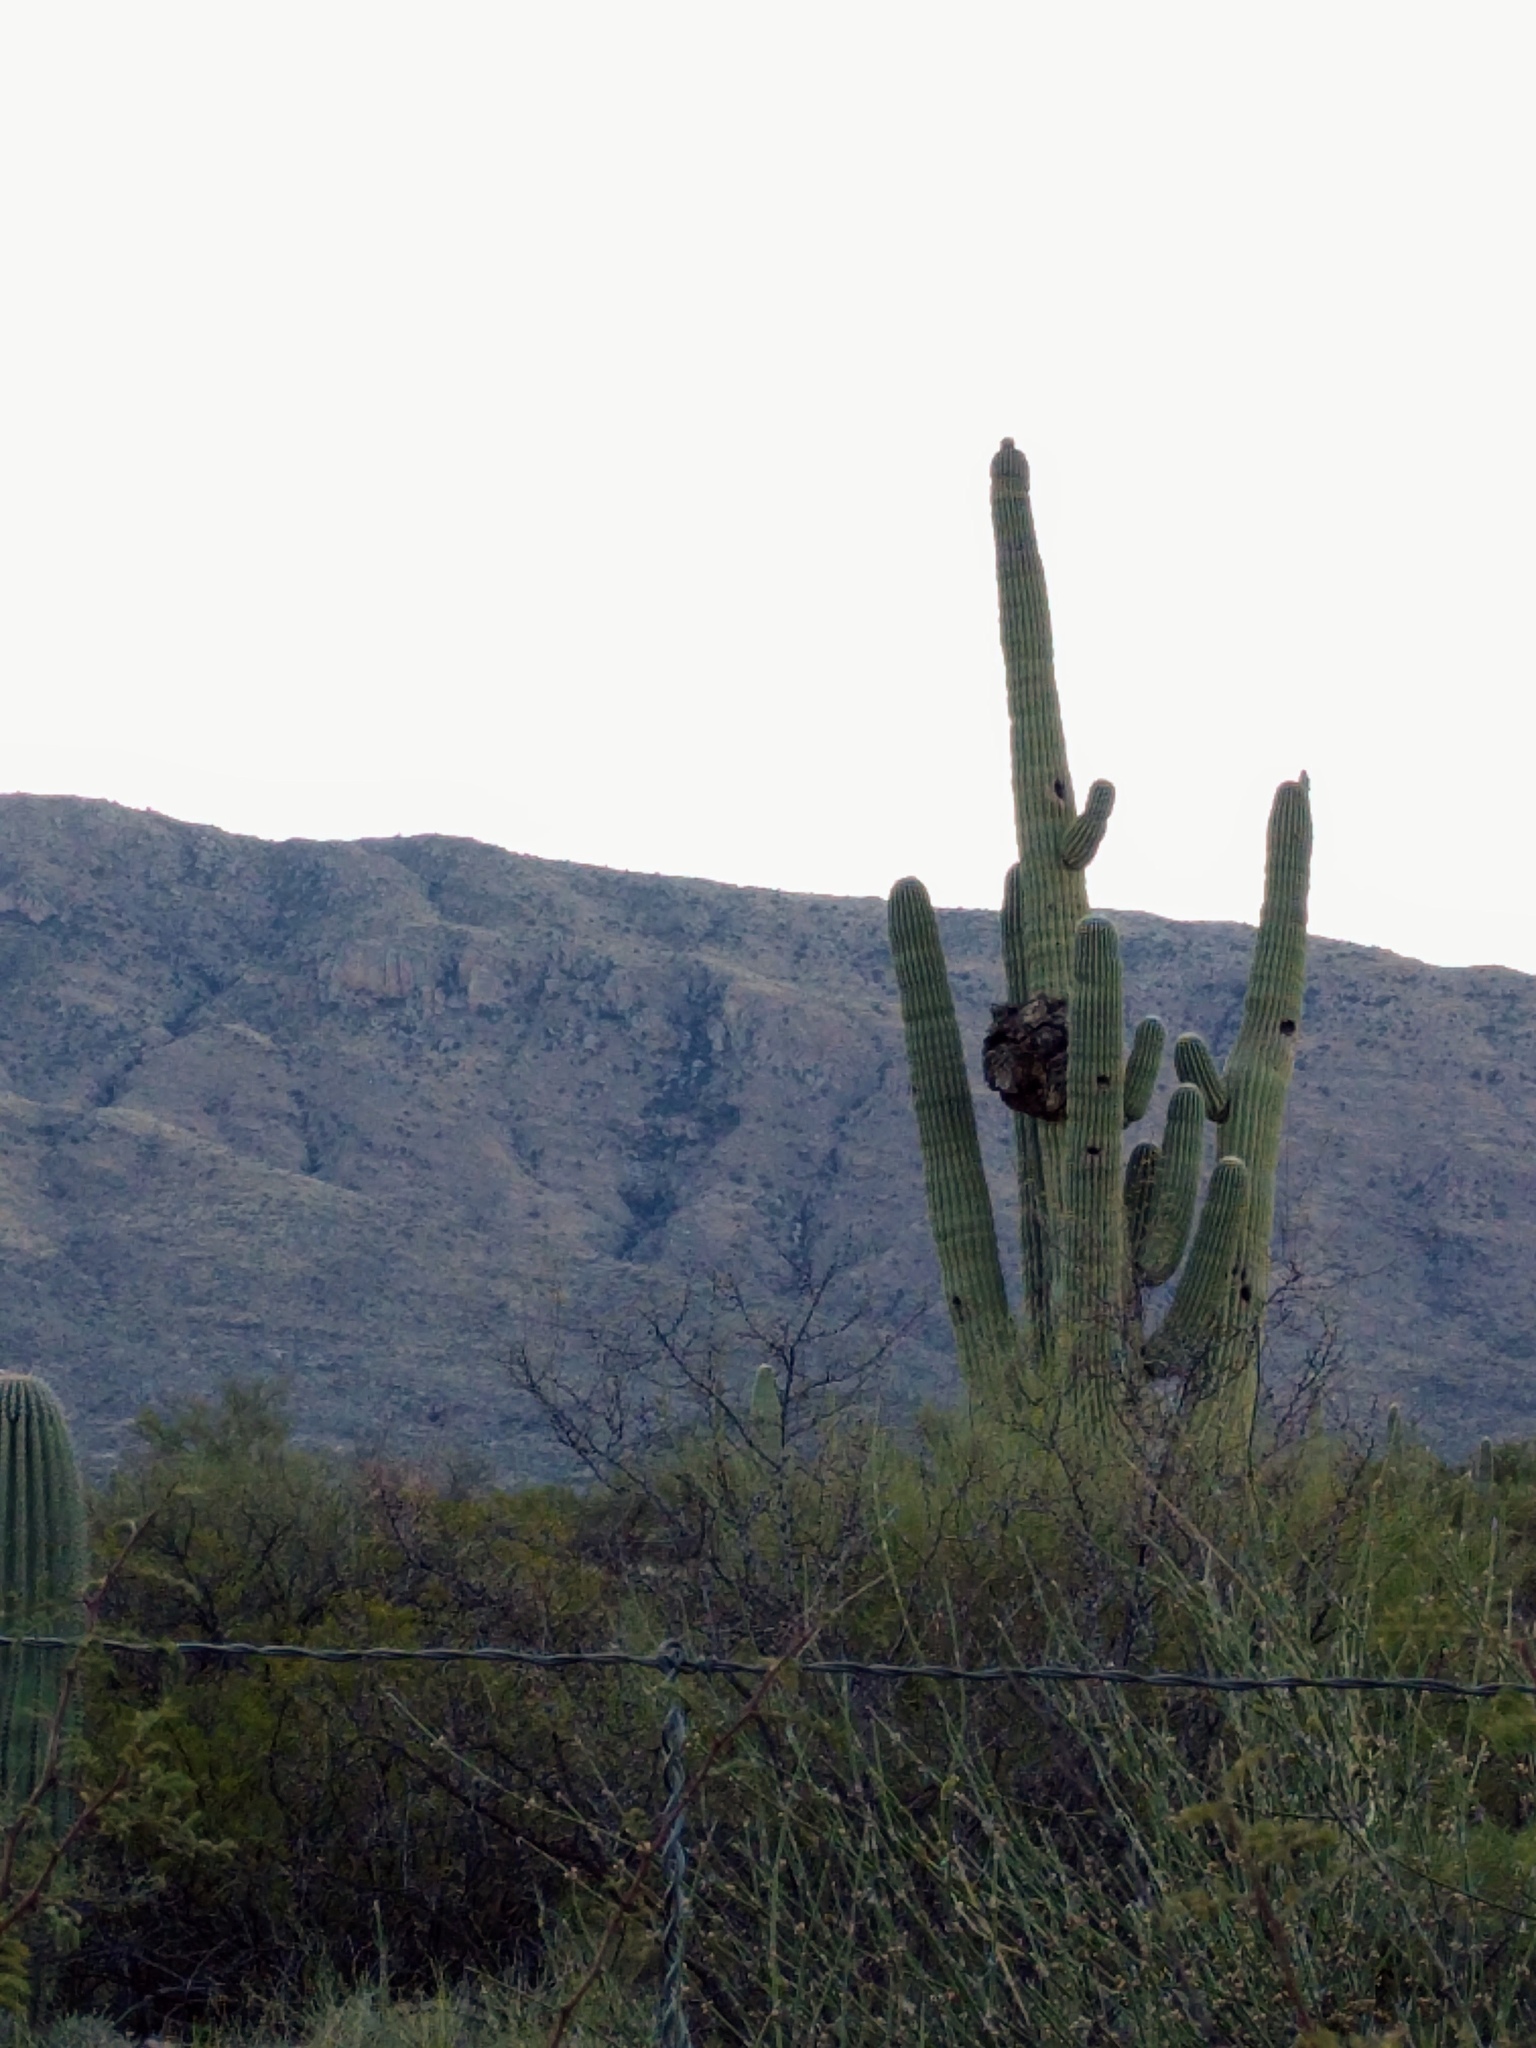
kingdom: Plantae
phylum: Tracheophyta
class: Magnoliopsida
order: Caryophyllales
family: Cactaceae
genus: Carnegiea
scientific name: Carnegiea gigantea
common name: Saguaro
